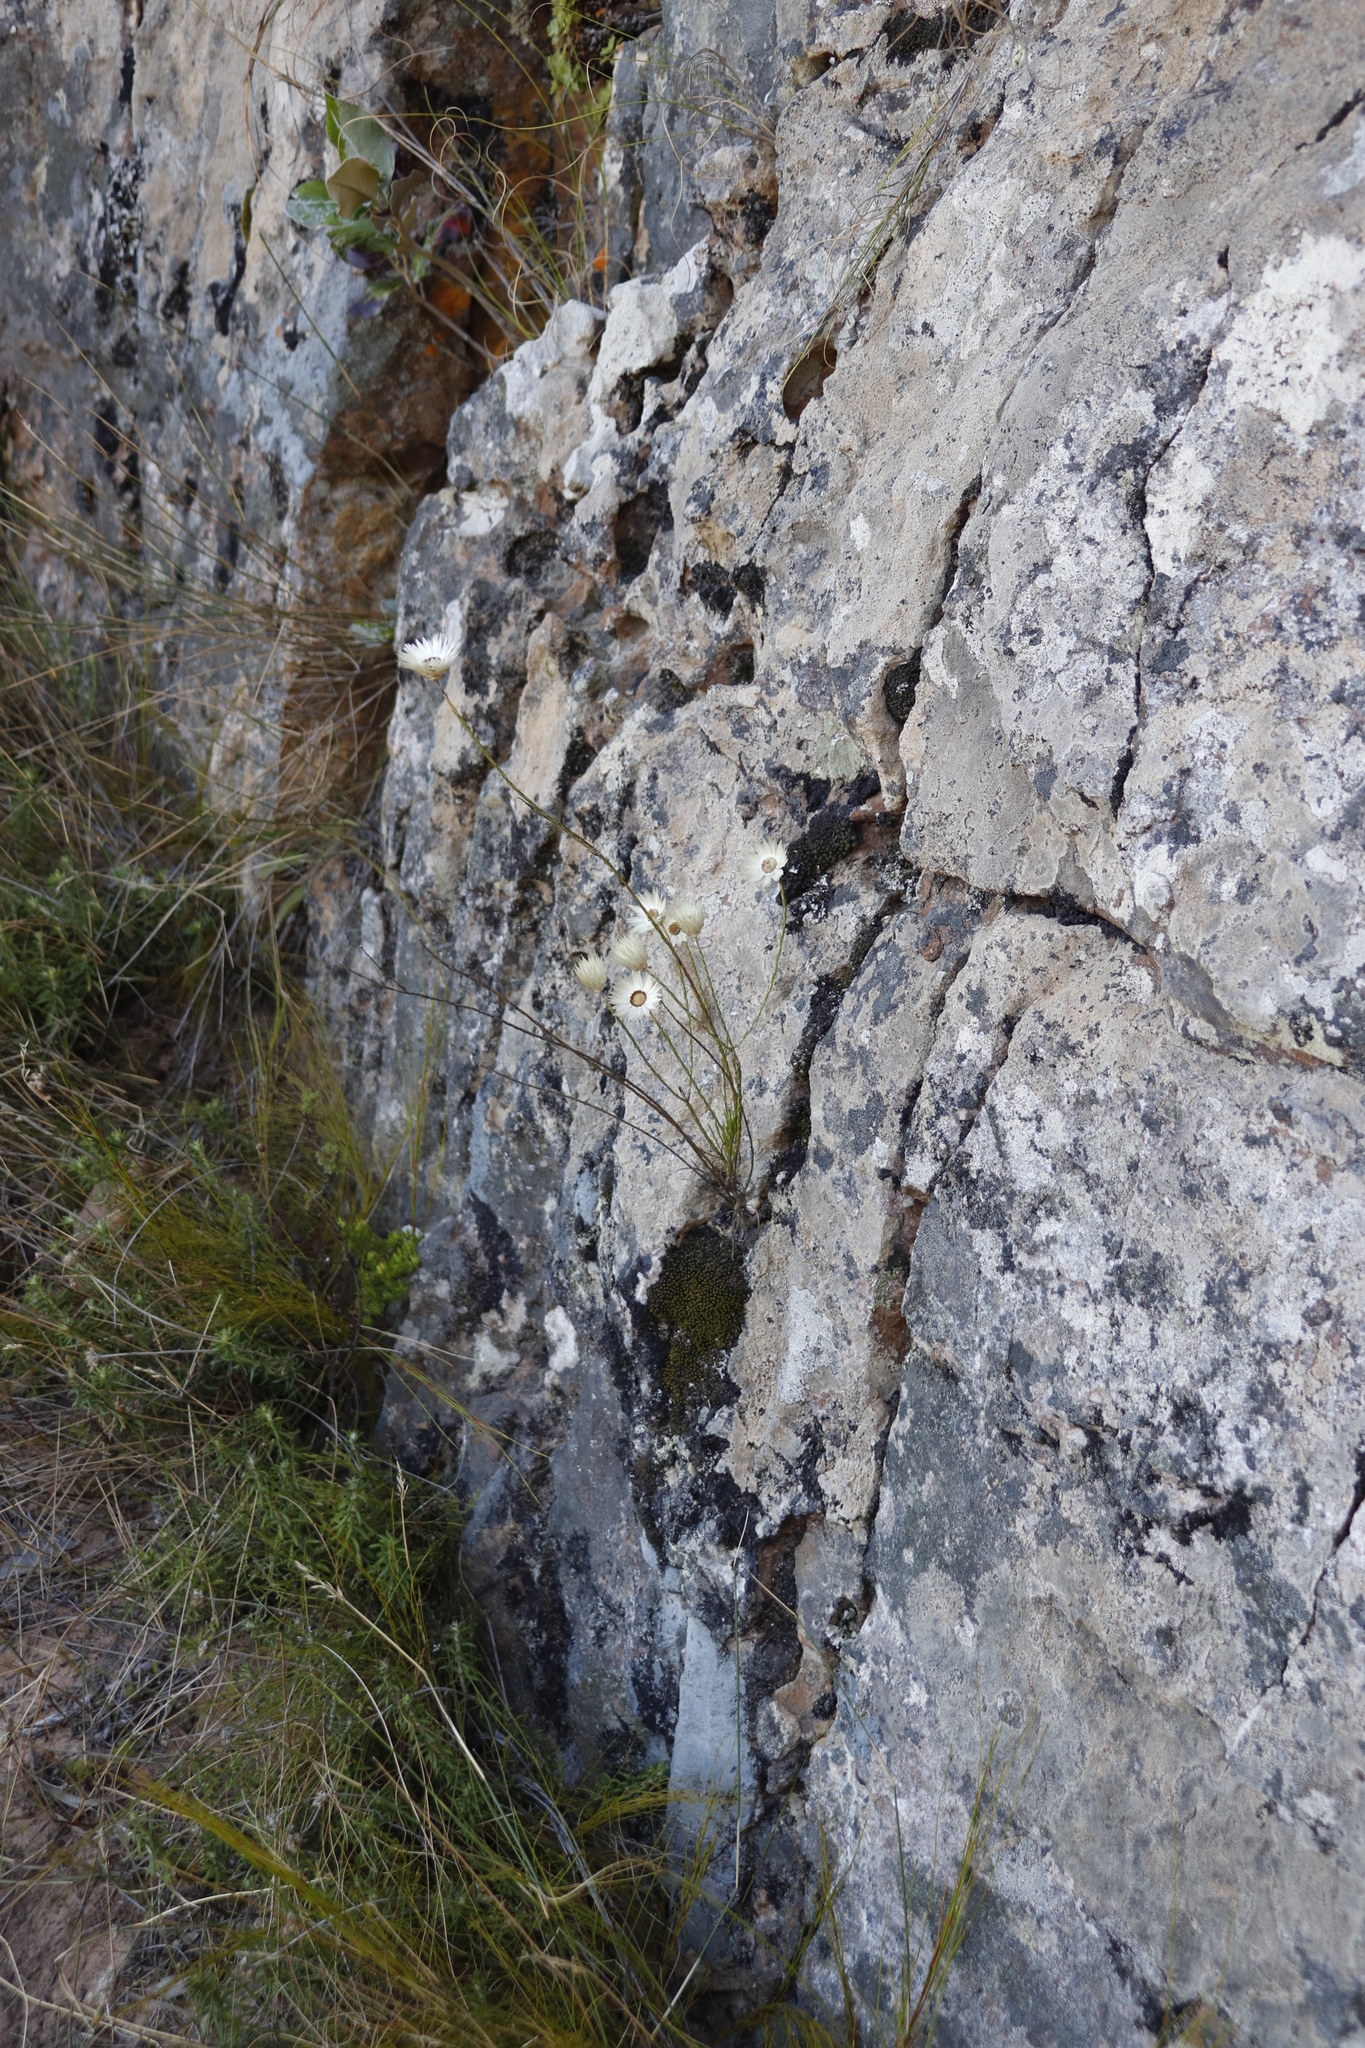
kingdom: Plantae
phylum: Tracheophyta
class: Magnoliopsida
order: Asterales
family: Asteraceae
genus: Edmondia
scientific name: Edmondia sesamoides
